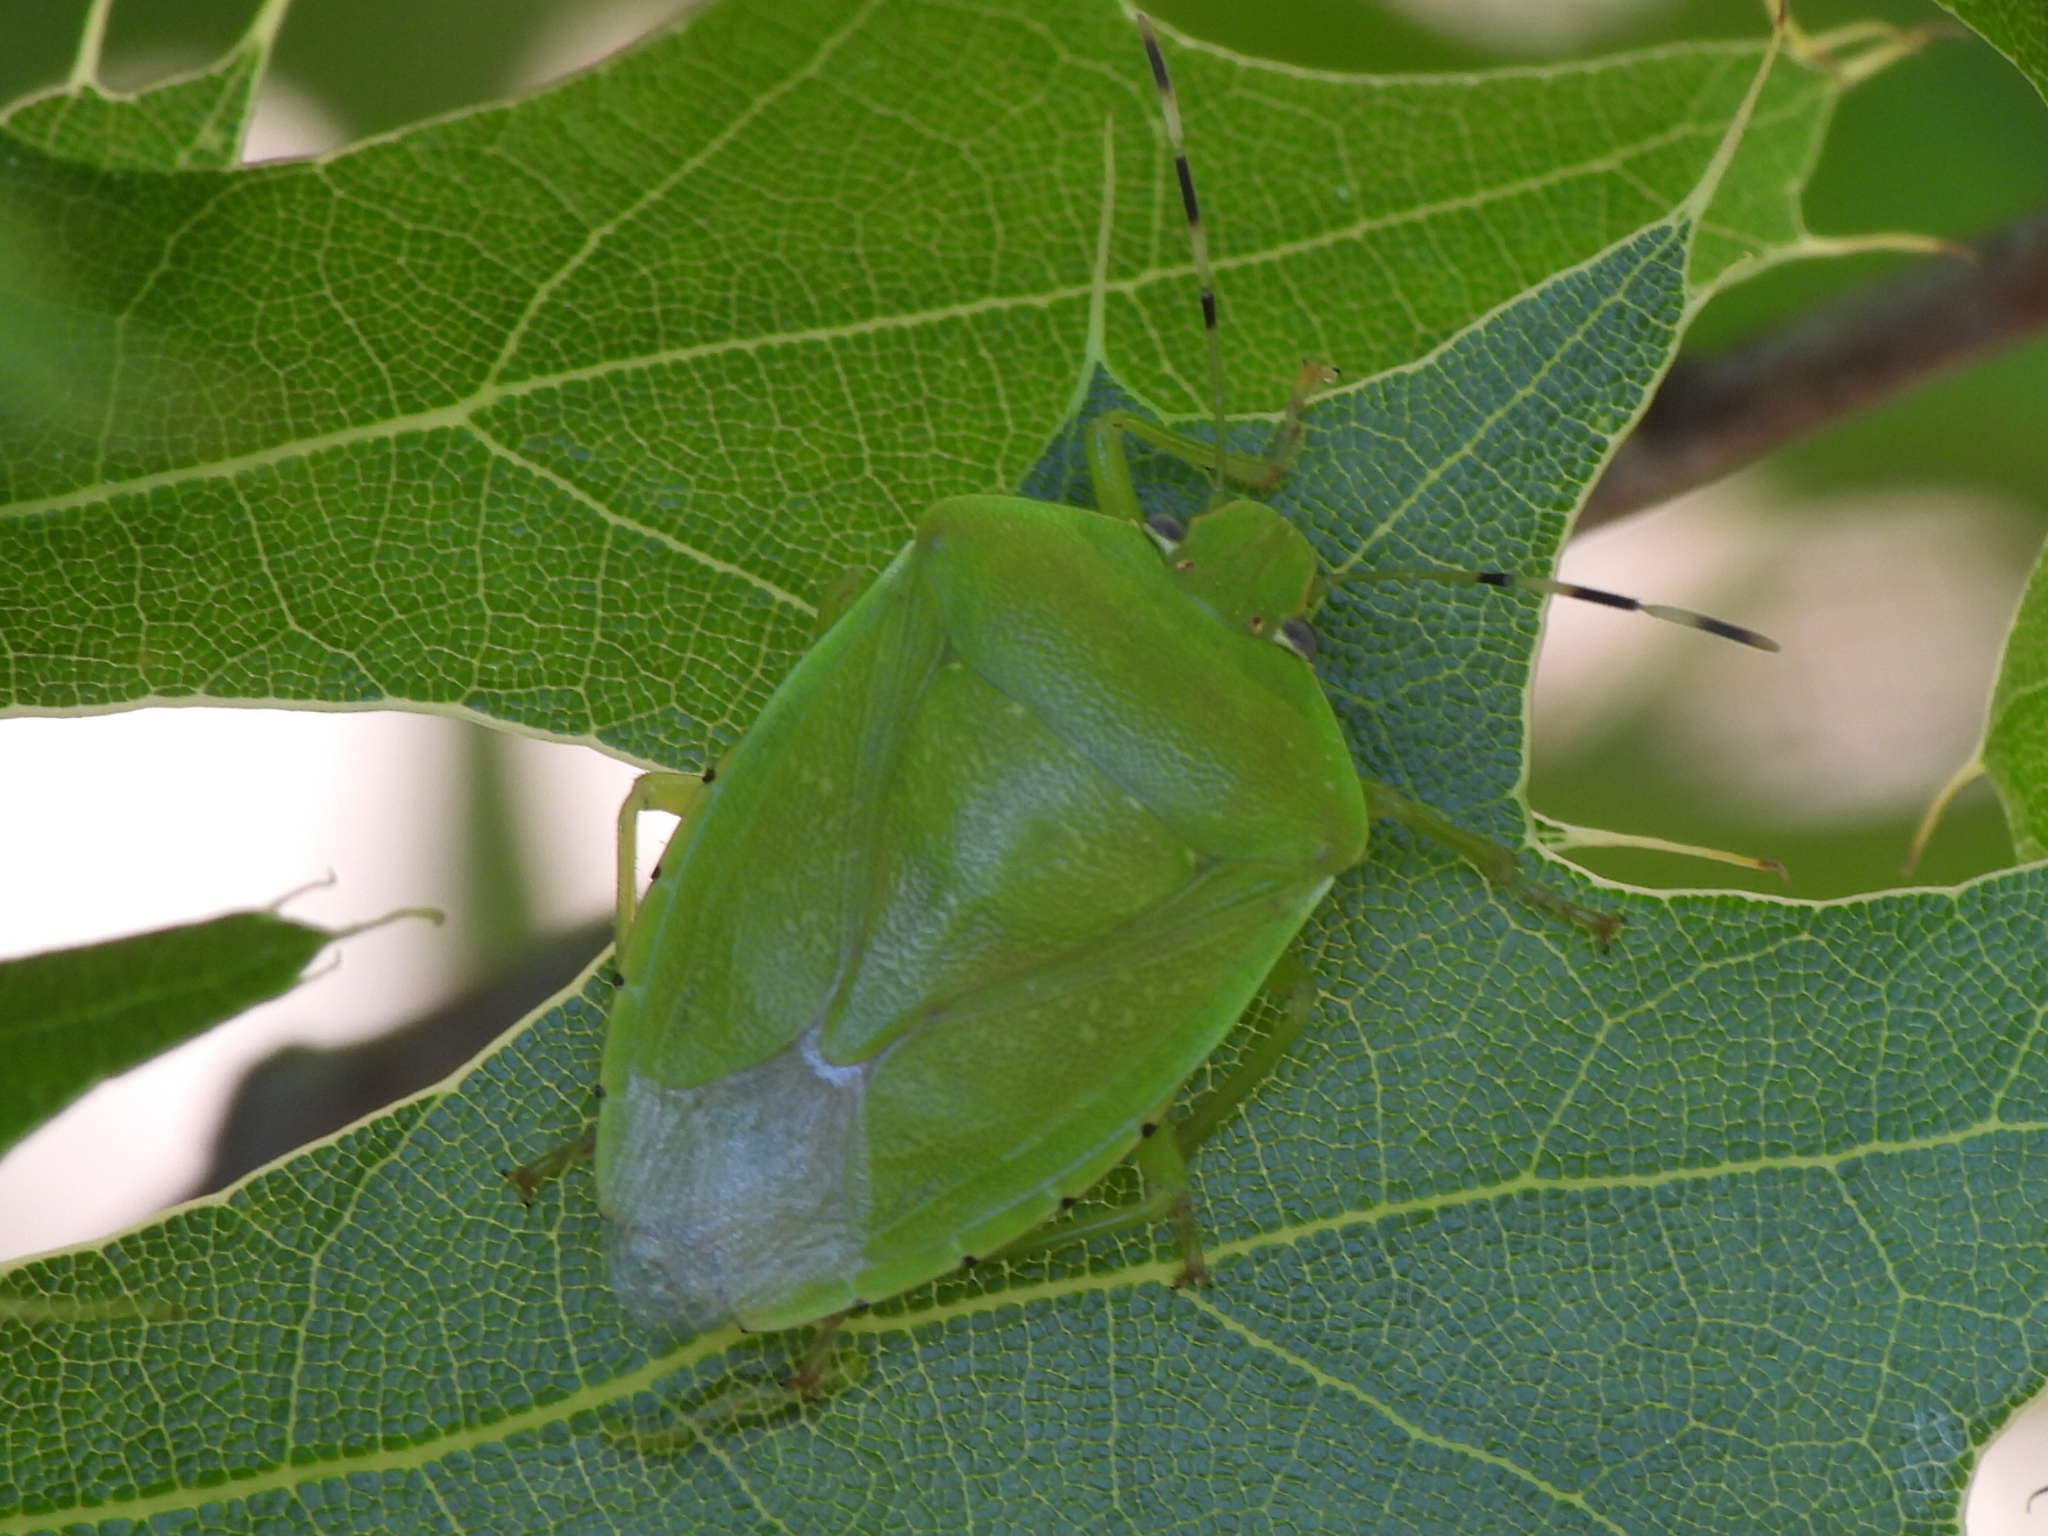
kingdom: Animalia
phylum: Arthropoda
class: Insecta
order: Hemiptera
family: Pentatomidae
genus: Chinavia
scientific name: Chinavia hilaris
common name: Green stink bug
